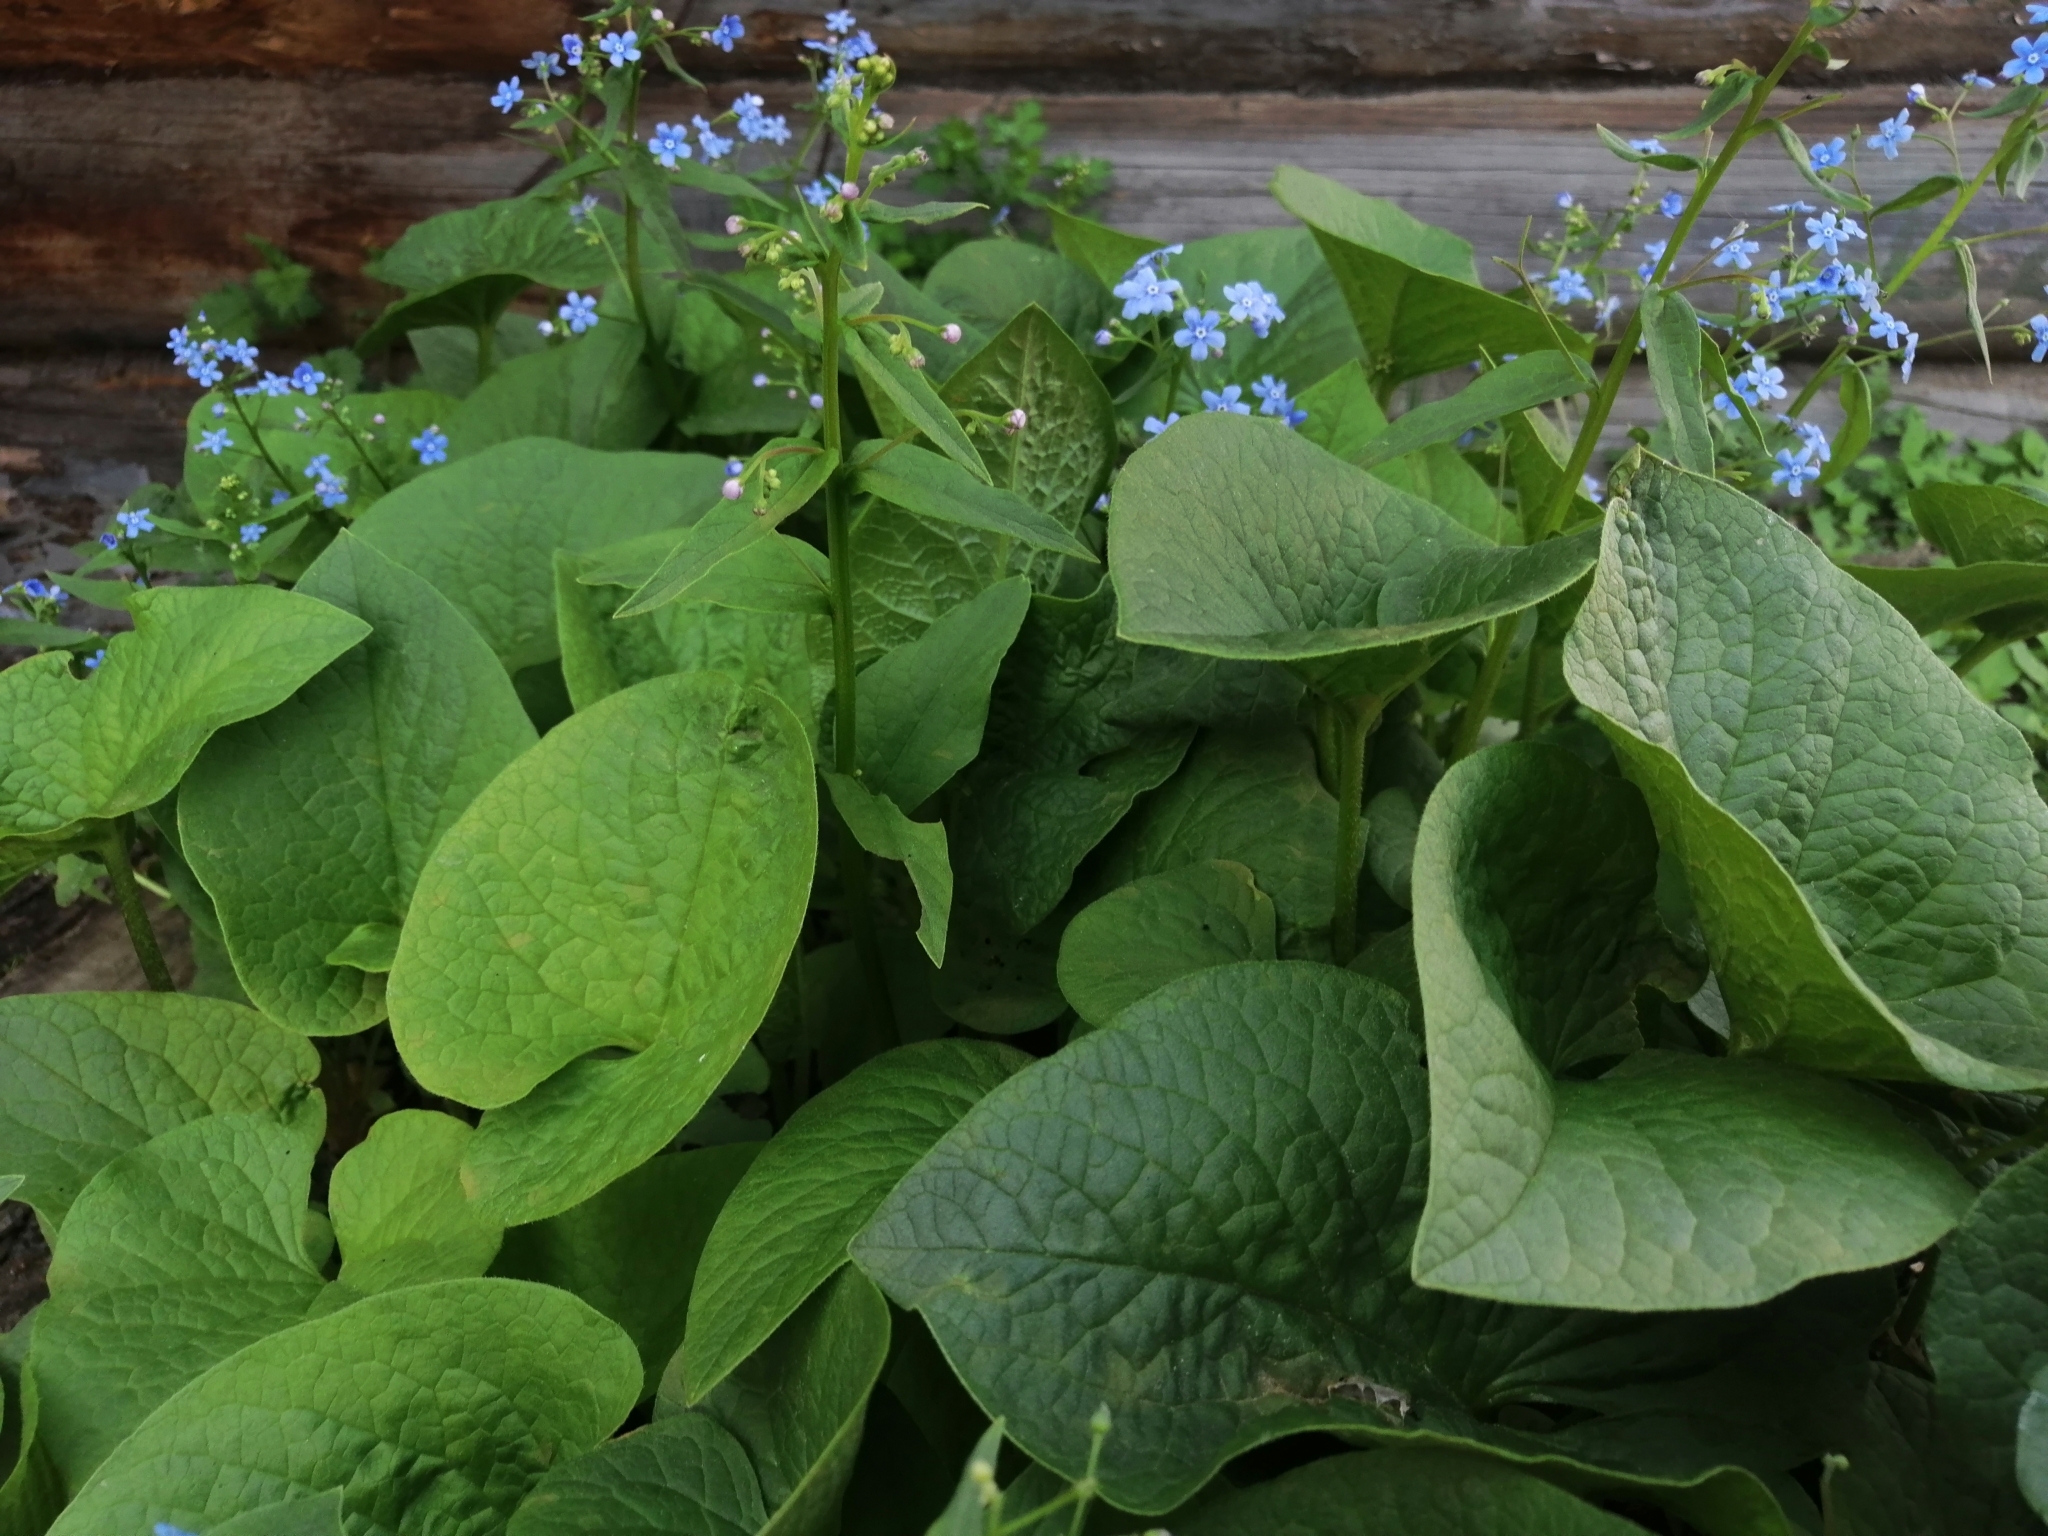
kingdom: Plantae
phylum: Tracheophyta
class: Magnoliopsida
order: Boraginales
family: Boraginaceae
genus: Brunnera
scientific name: Brunnera sibirica
